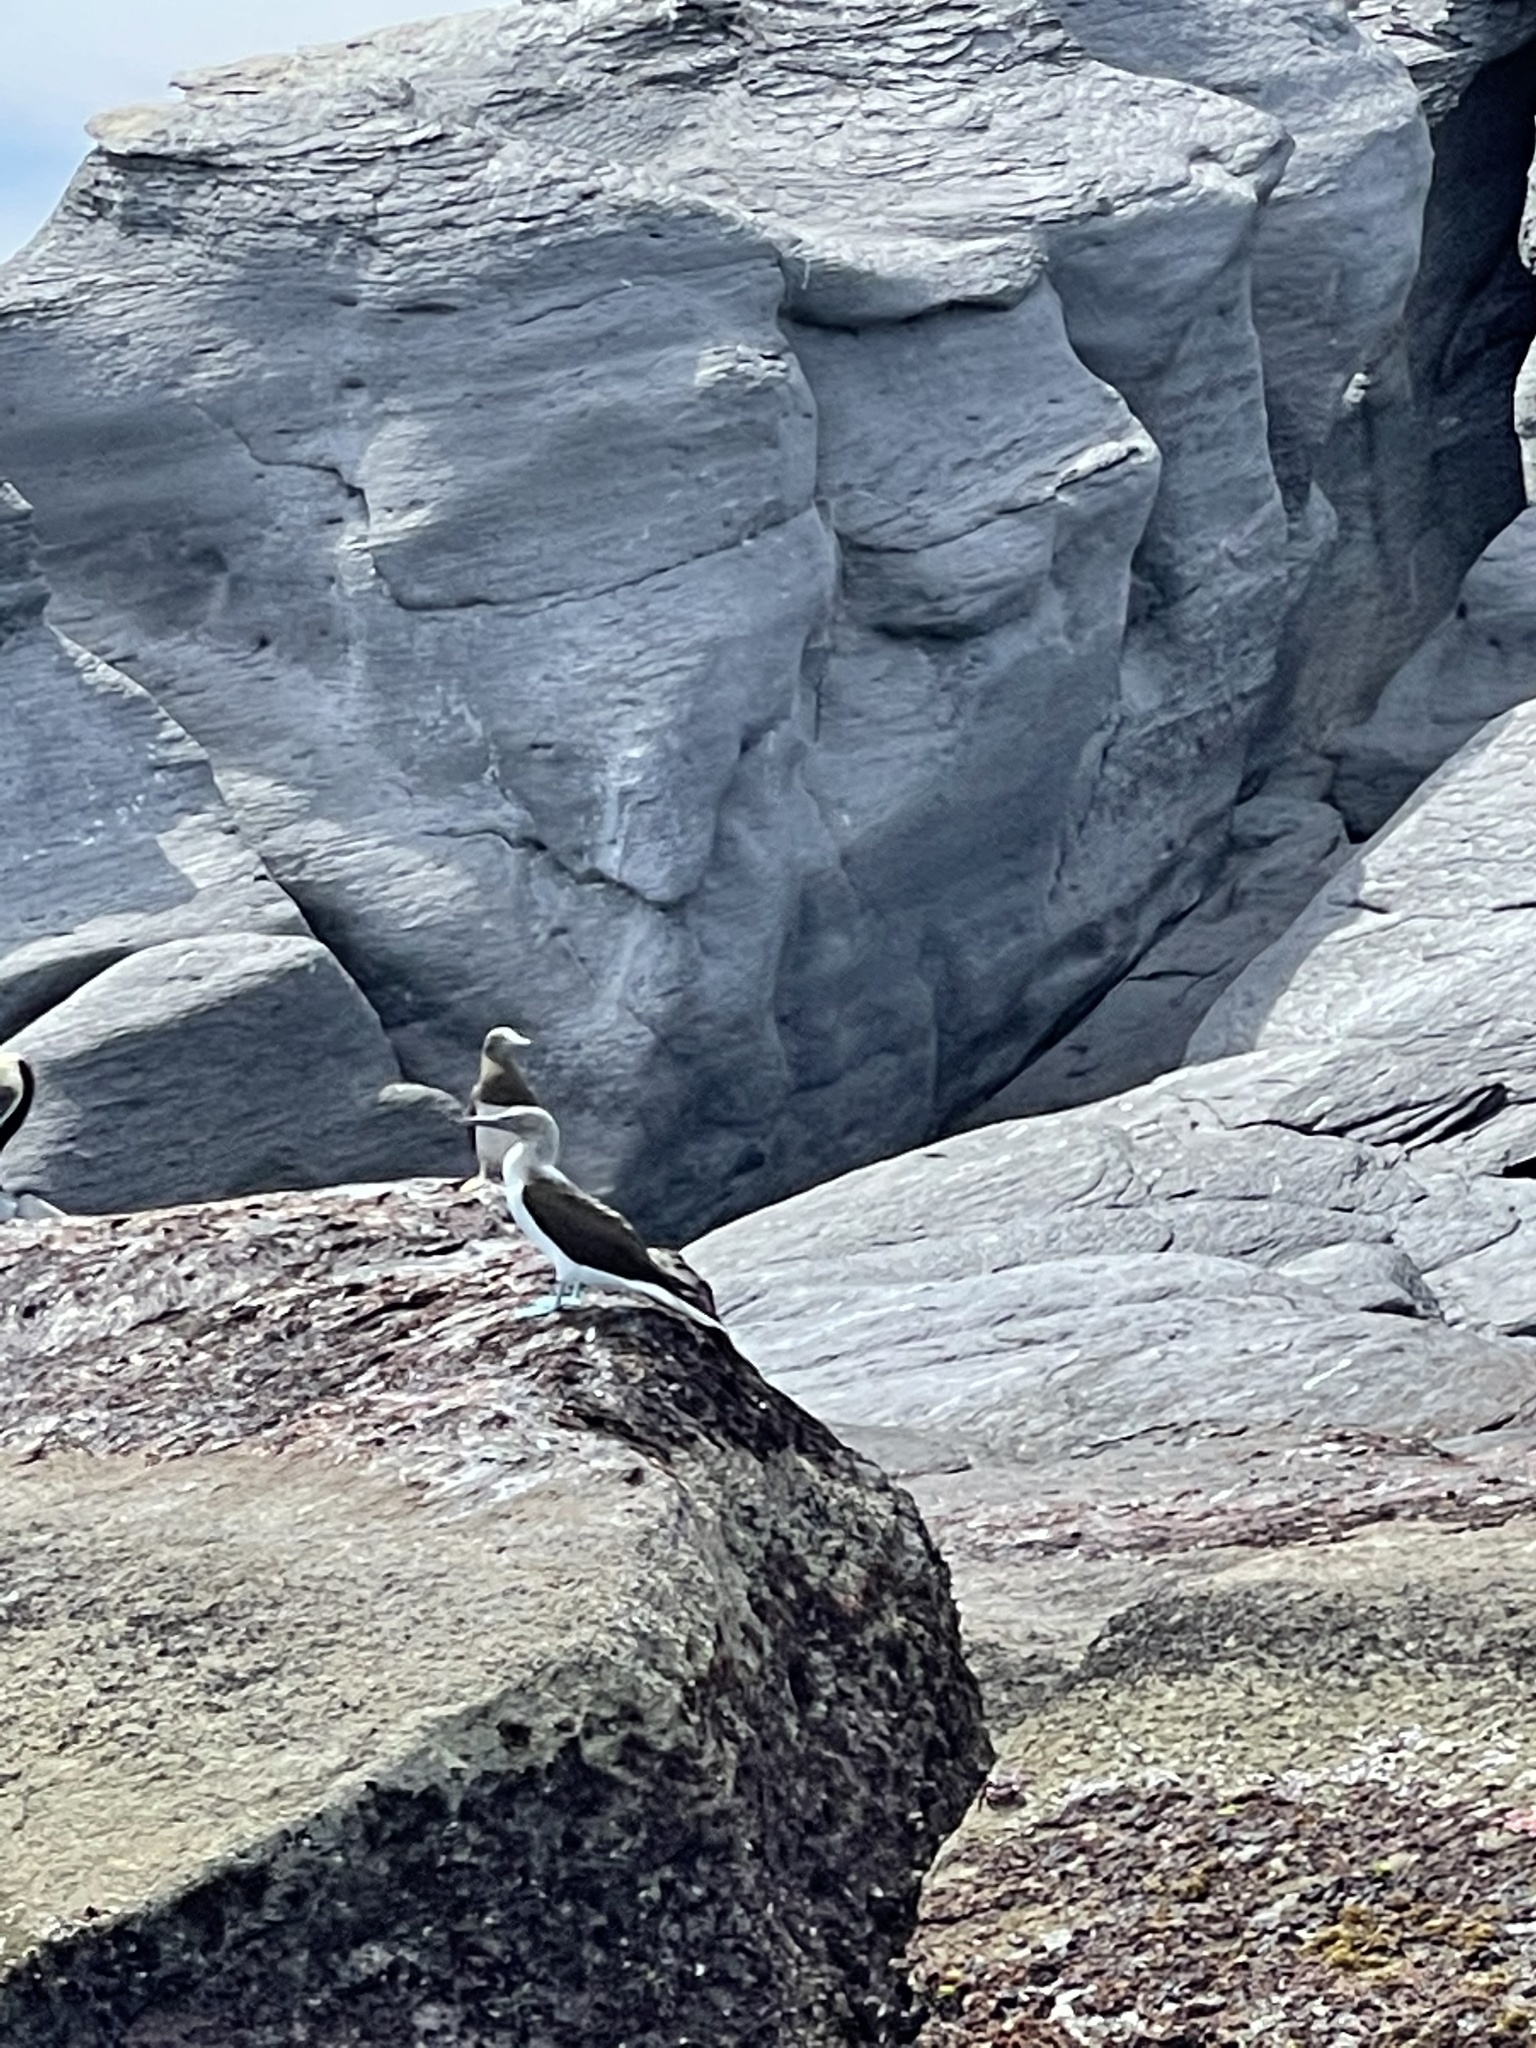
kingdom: Animalia
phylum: Chordata
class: Aves
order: Suliformes
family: Sulidae
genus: Sula
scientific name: Sula nebouxii
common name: Blue-footed booby
